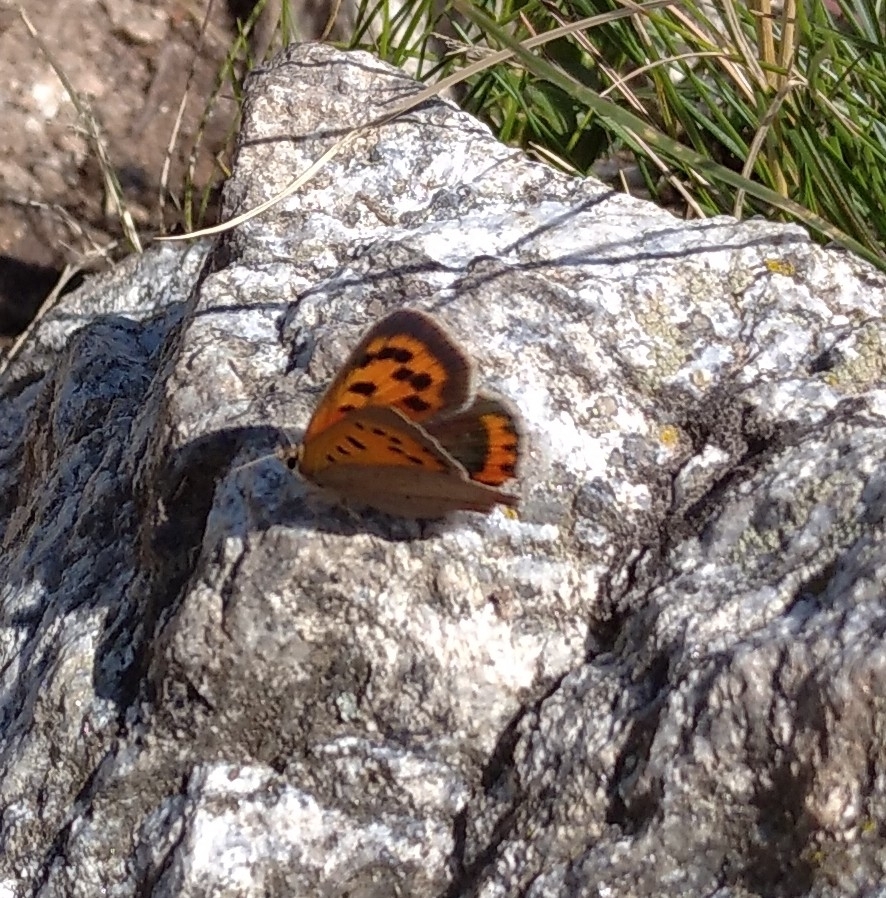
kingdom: Animalia
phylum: Arthropoda
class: Insecta
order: Lepidoptera
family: Lycaenidae
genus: Lycaena
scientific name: Lycaena phlaeas
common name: Small copper
